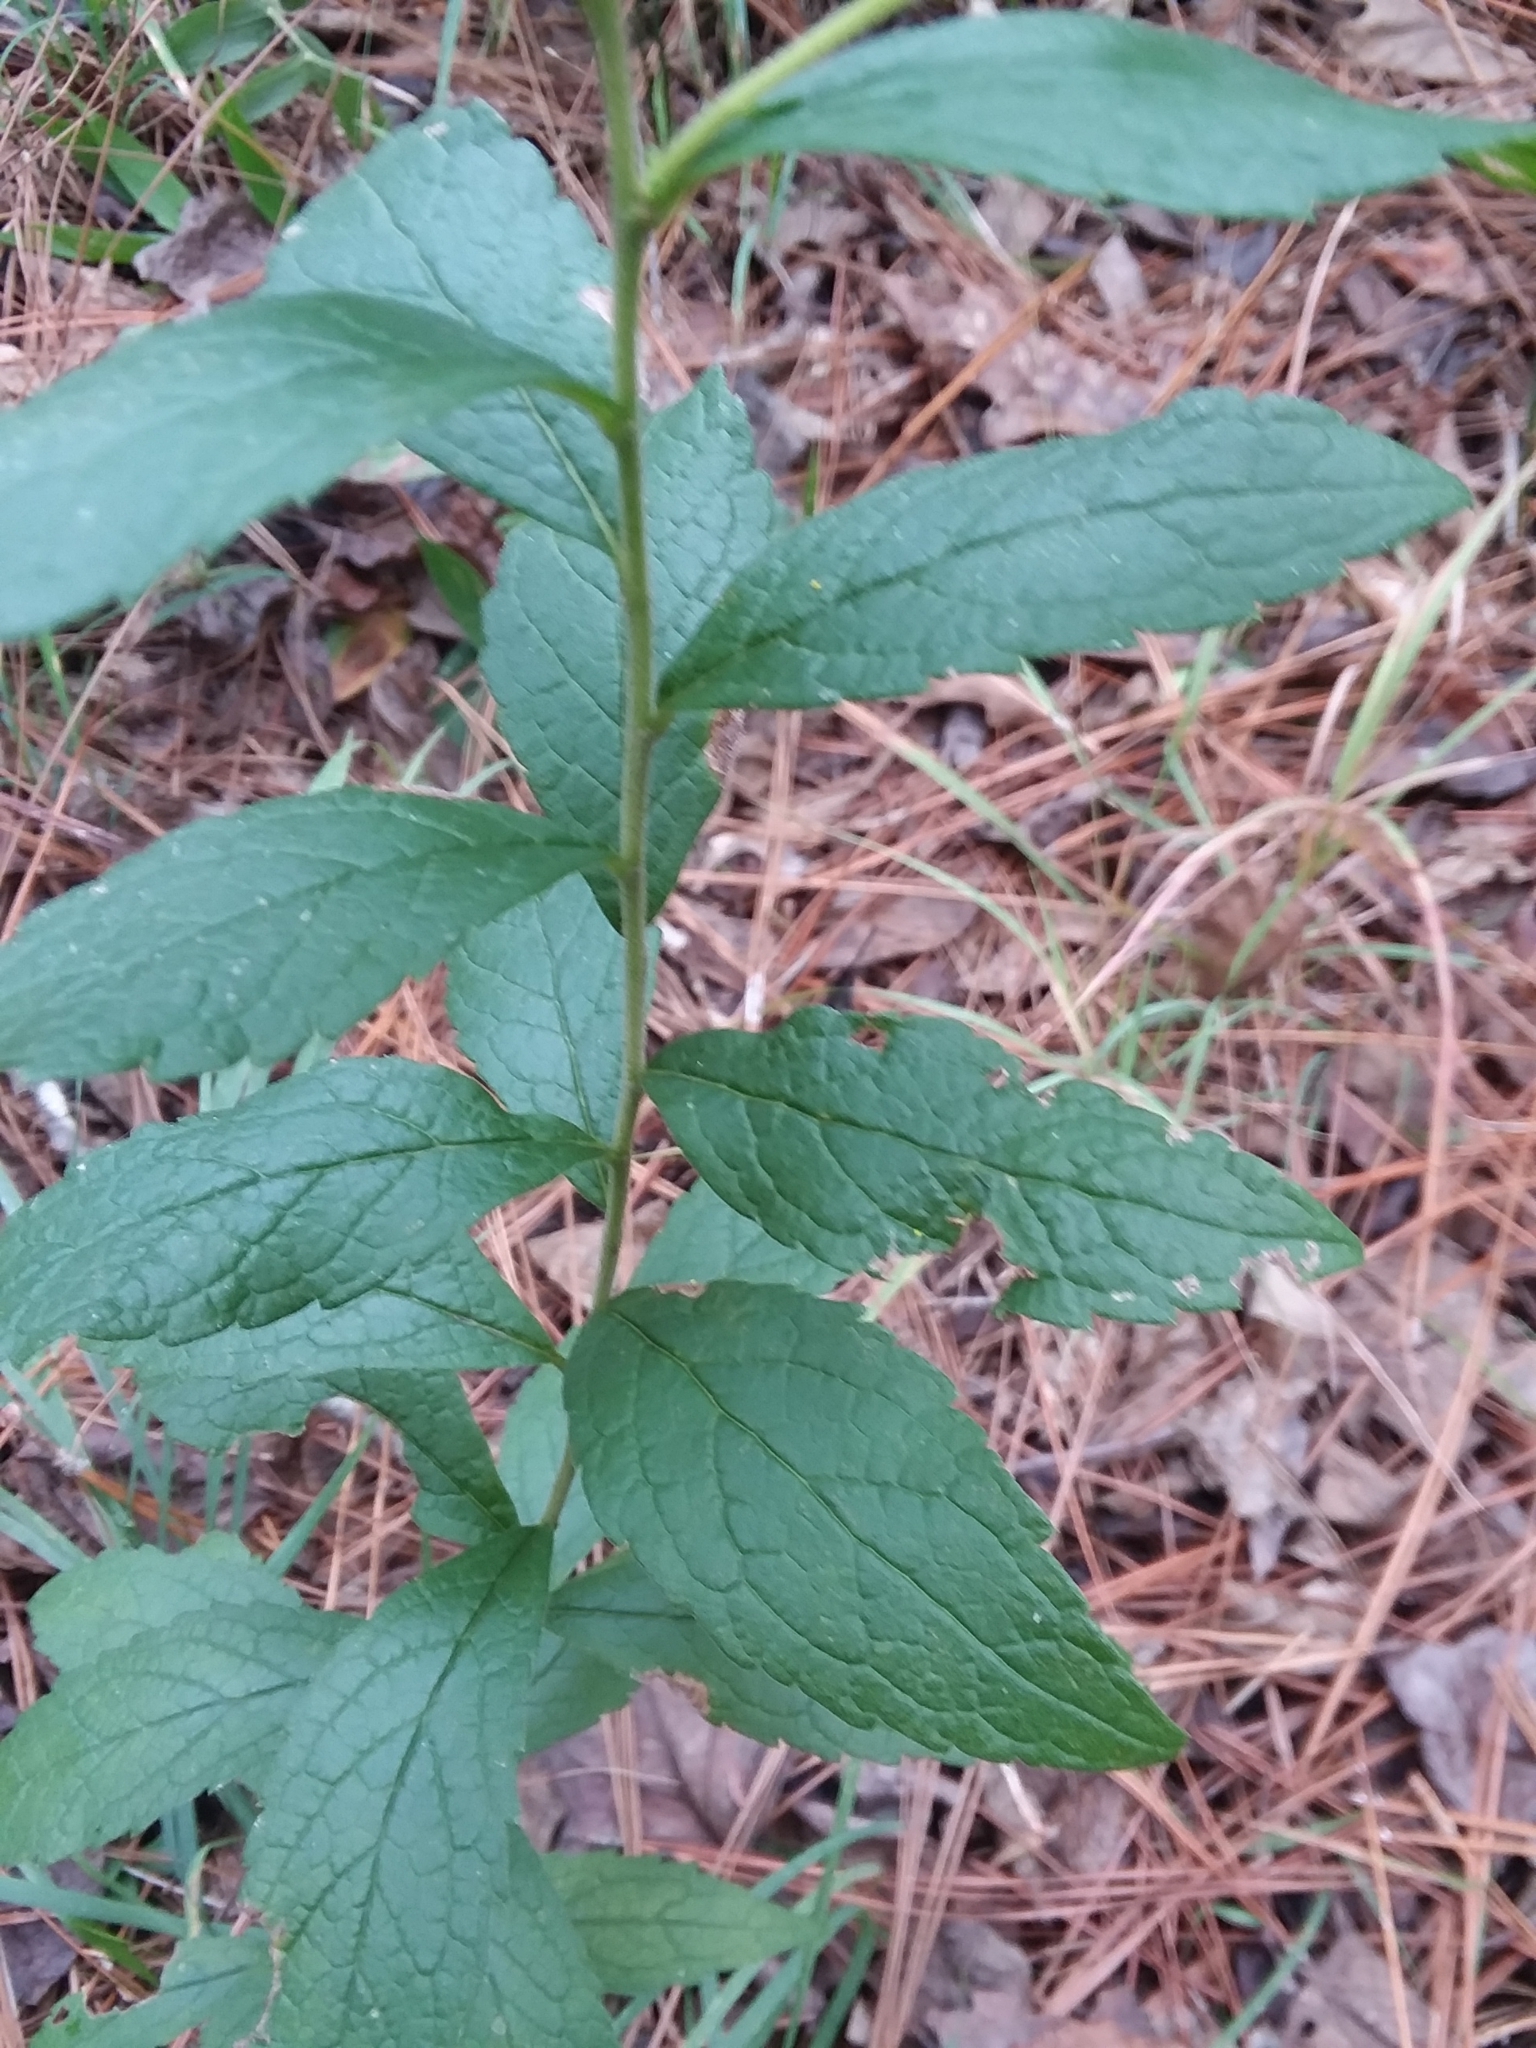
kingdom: Plantae
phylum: Tracheophyta
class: Magnoliopsida
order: Asterales
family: Asteraceae
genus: Solidago
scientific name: Solidago rugosa
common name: Rough-stemmed goldenrod
